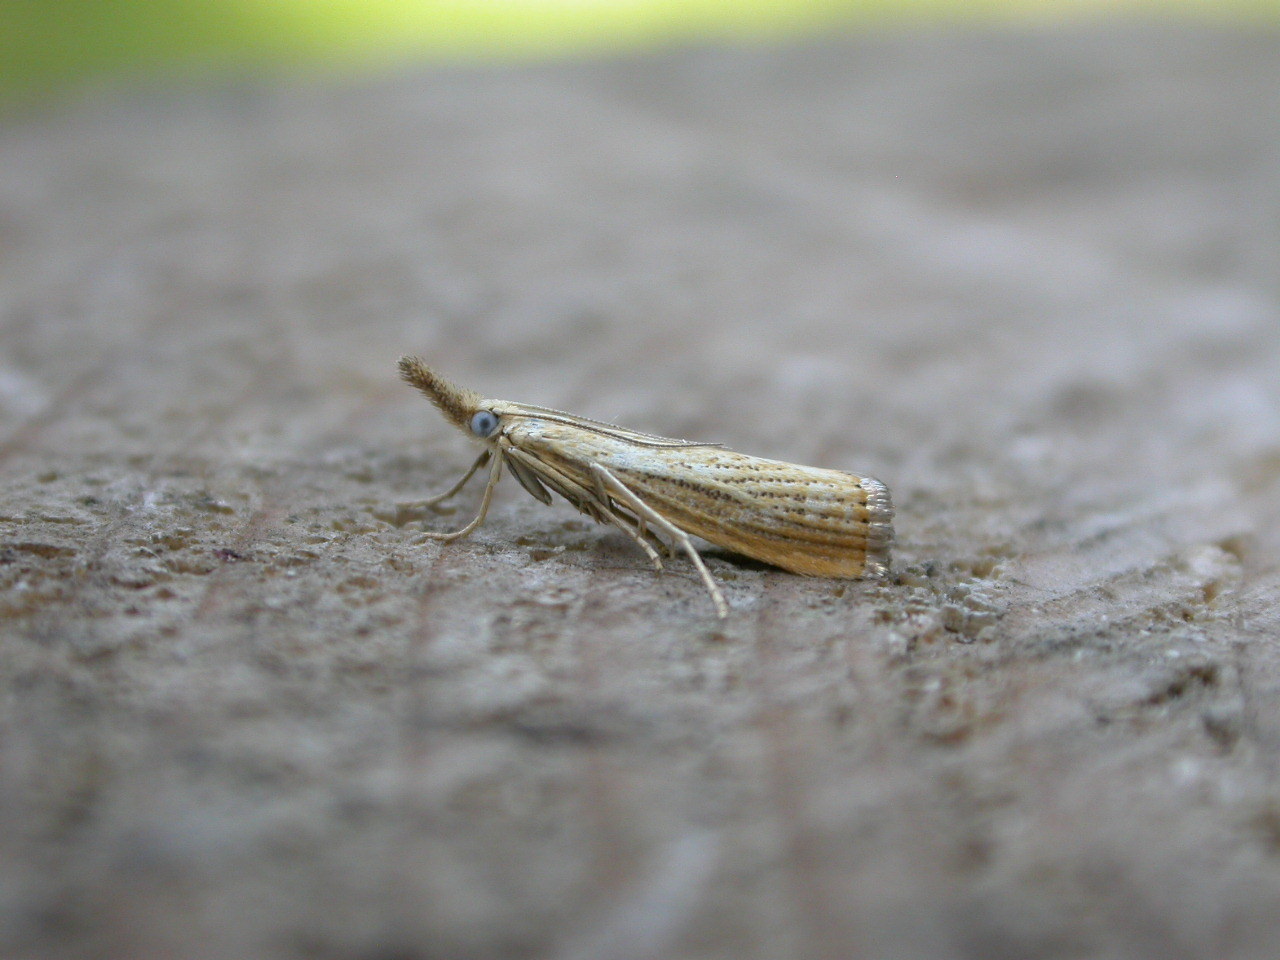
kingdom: Animalia
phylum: Arthropoda
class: Insecta
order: Lepidoptera
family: Crambidae
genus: Agriphila
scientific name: Agriphila straminella
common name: Straw grass-veneer
